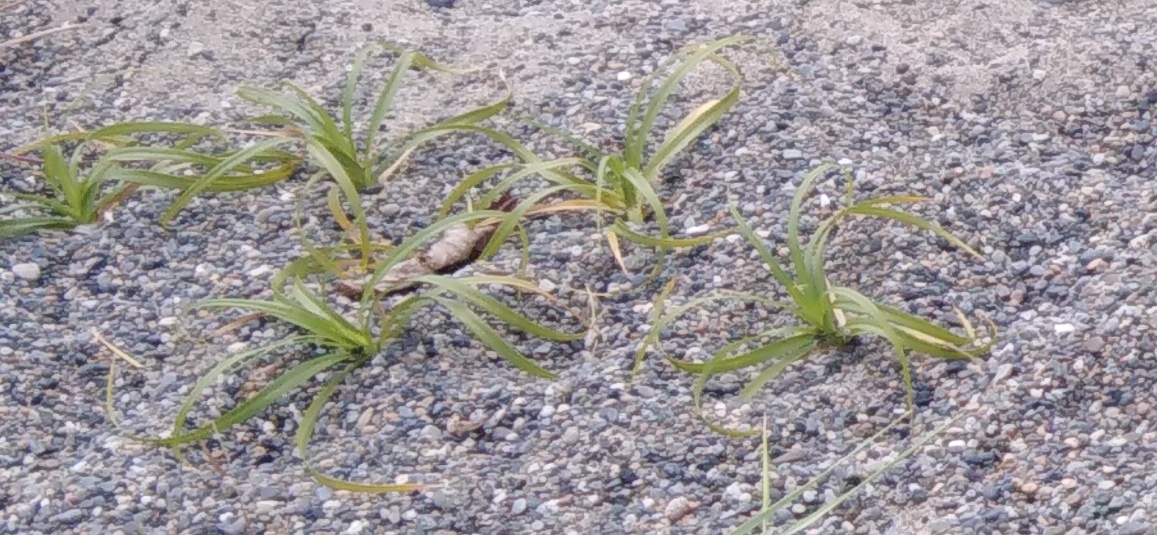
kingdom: Plantae
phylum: Tracheophyta
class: Liliopsida
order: Poales
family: Cyperaceae
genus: Carex
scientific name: Carex macrocephala
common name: Large-head sedge
